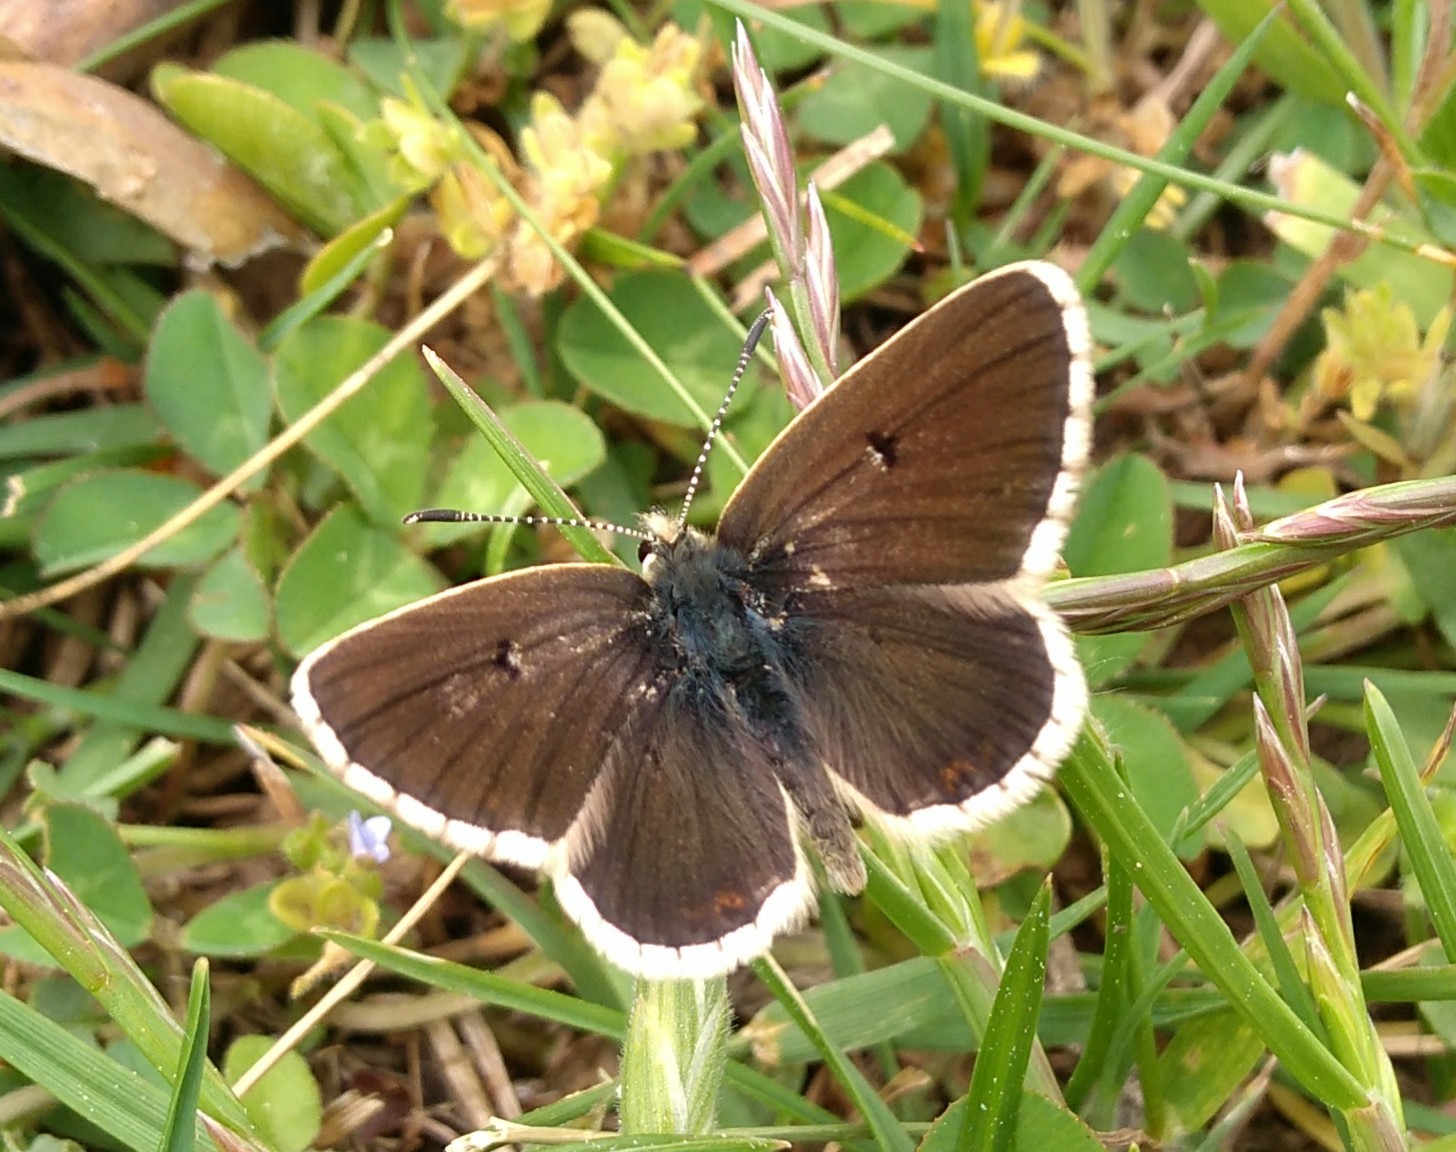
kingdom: Animalia
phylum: Arthropoda
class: Insecta
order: Lepidoptera
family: Lycaenidae
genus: Aricia
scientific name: Aricia morronensis
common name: Spanish argus
